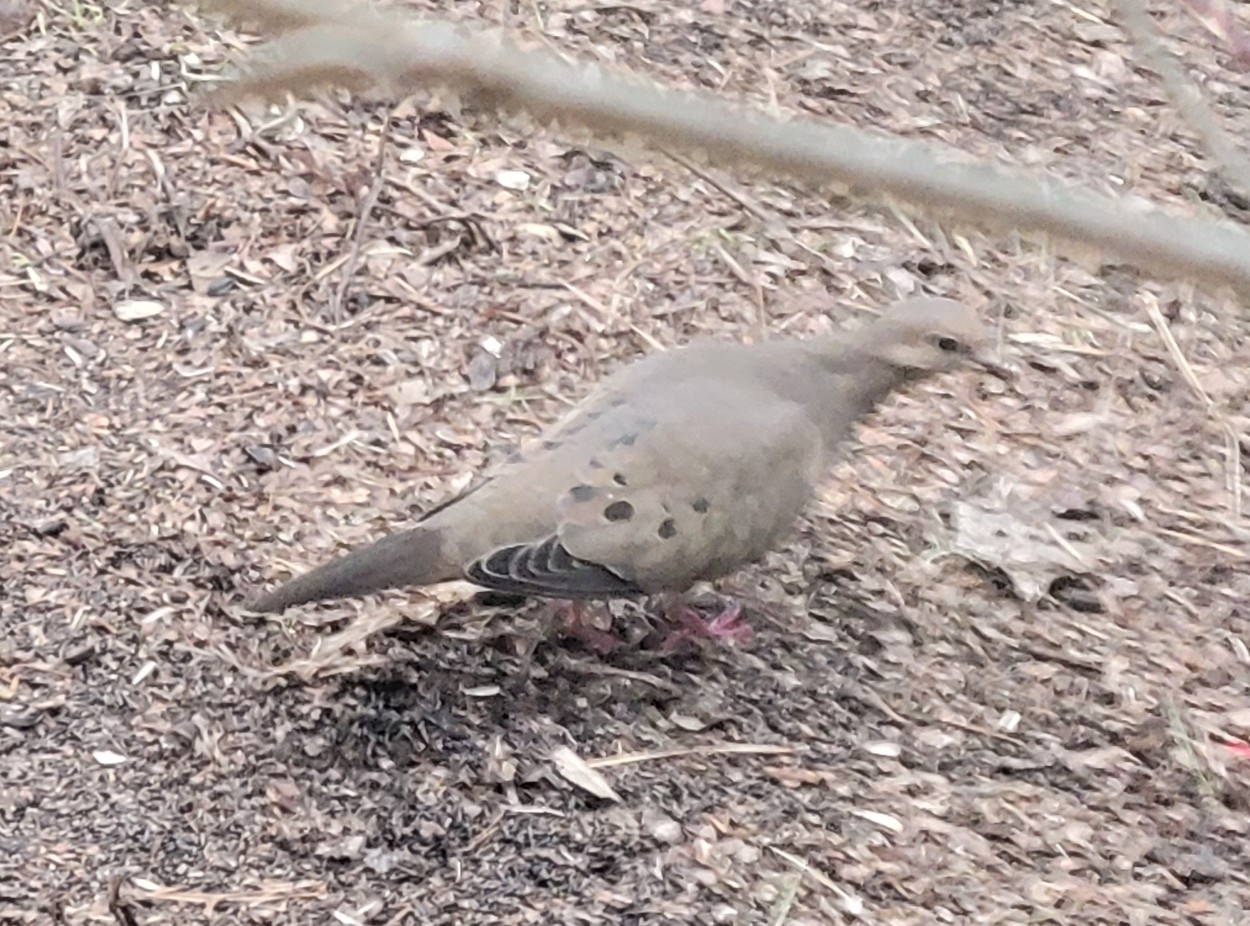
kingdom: Animalia
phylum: Chordata
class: Aves
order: Columbiformes
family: Columbidae
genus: Zenaida
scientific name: Zenaida macroura
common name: Mourning dove
